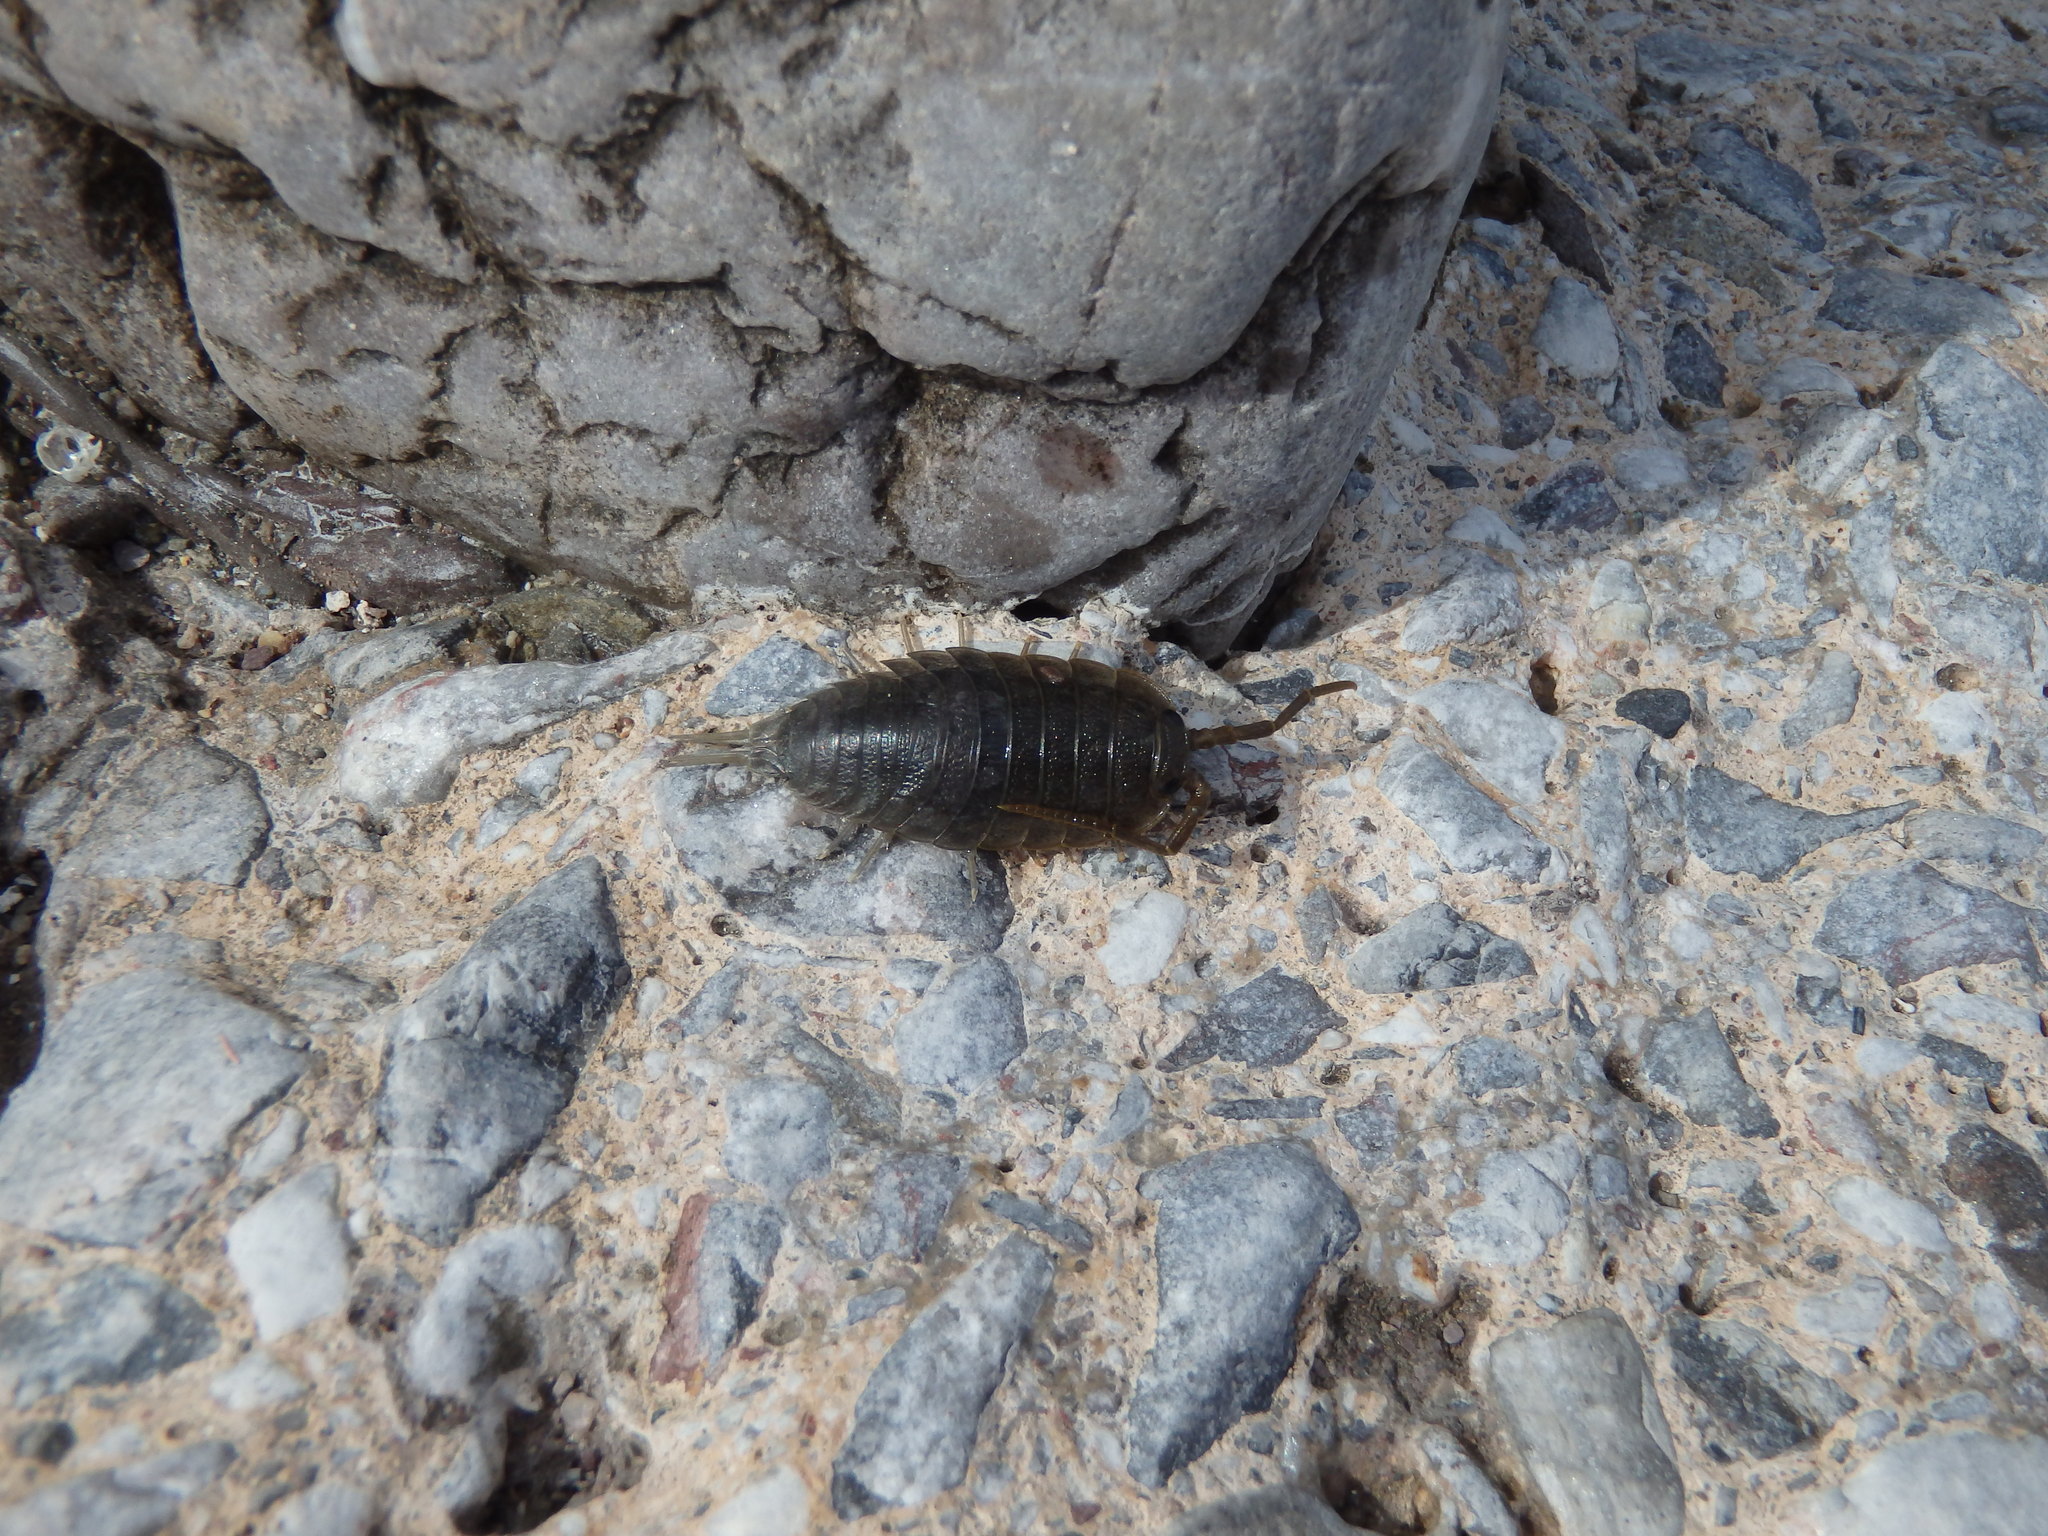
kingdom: Animalia
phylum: Arthropoda
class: Malacostraca
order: Isopoda
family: Ligiidae
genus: Ligia
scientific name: Ligia oceanica
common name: Sea slater
